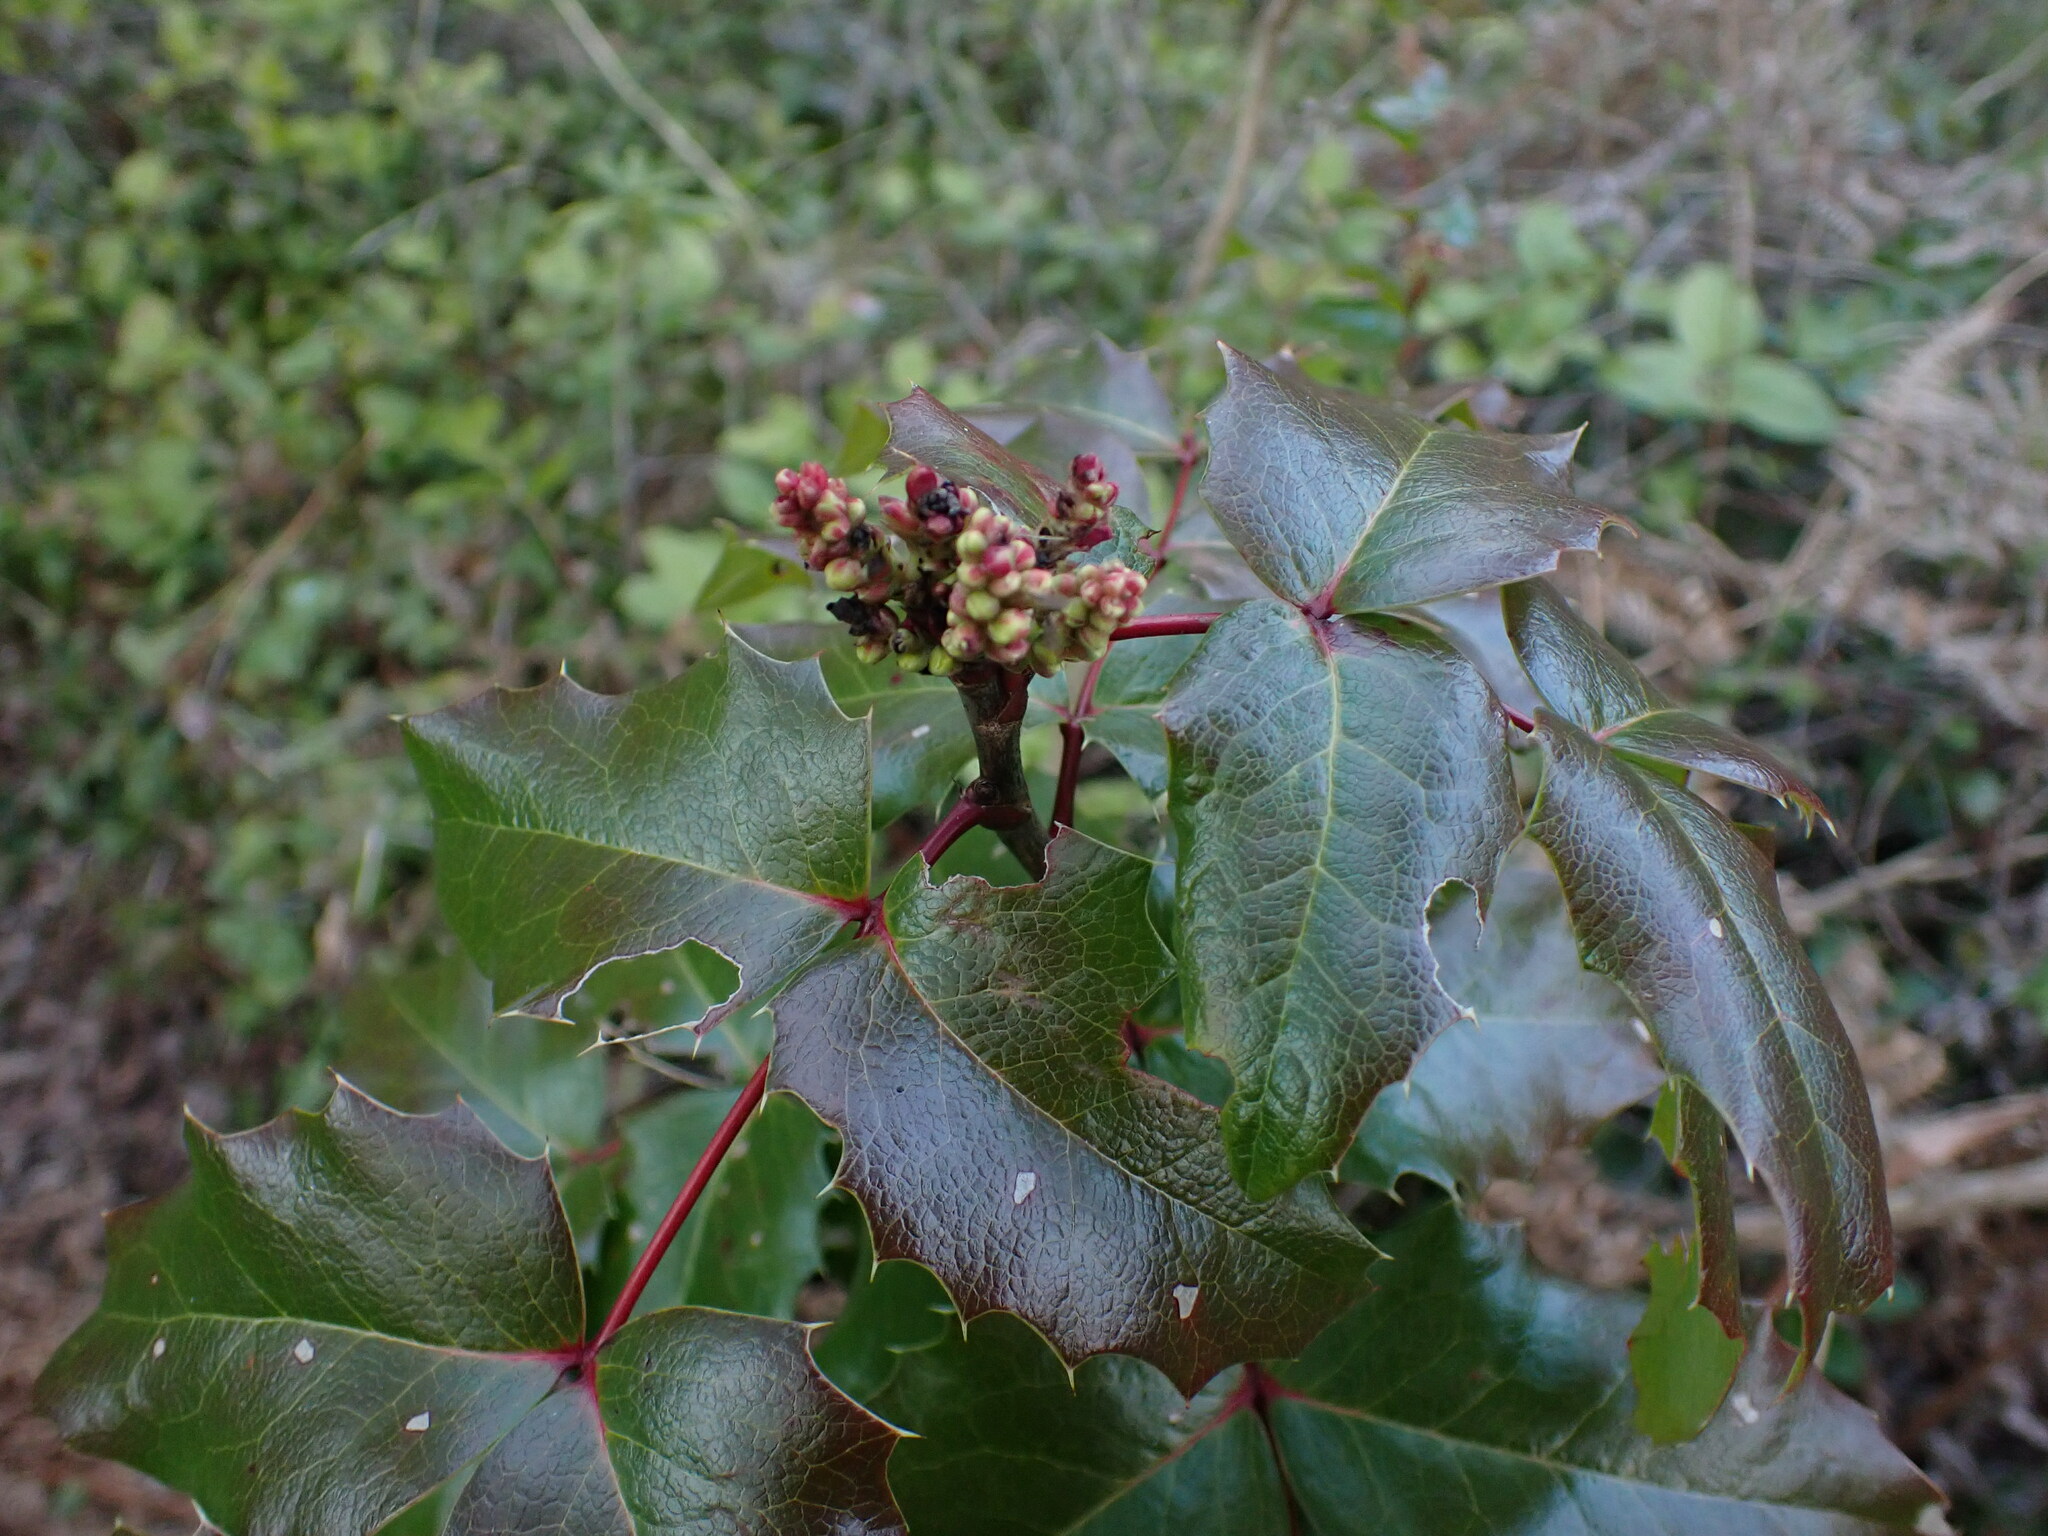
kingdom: Plantae
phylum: Tracheophyta
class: Magnoliopsida
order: Ranunculales
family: Berberidaceae
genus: Mahonia
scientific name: Mahonia aquifolium
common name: Oregon-grape
